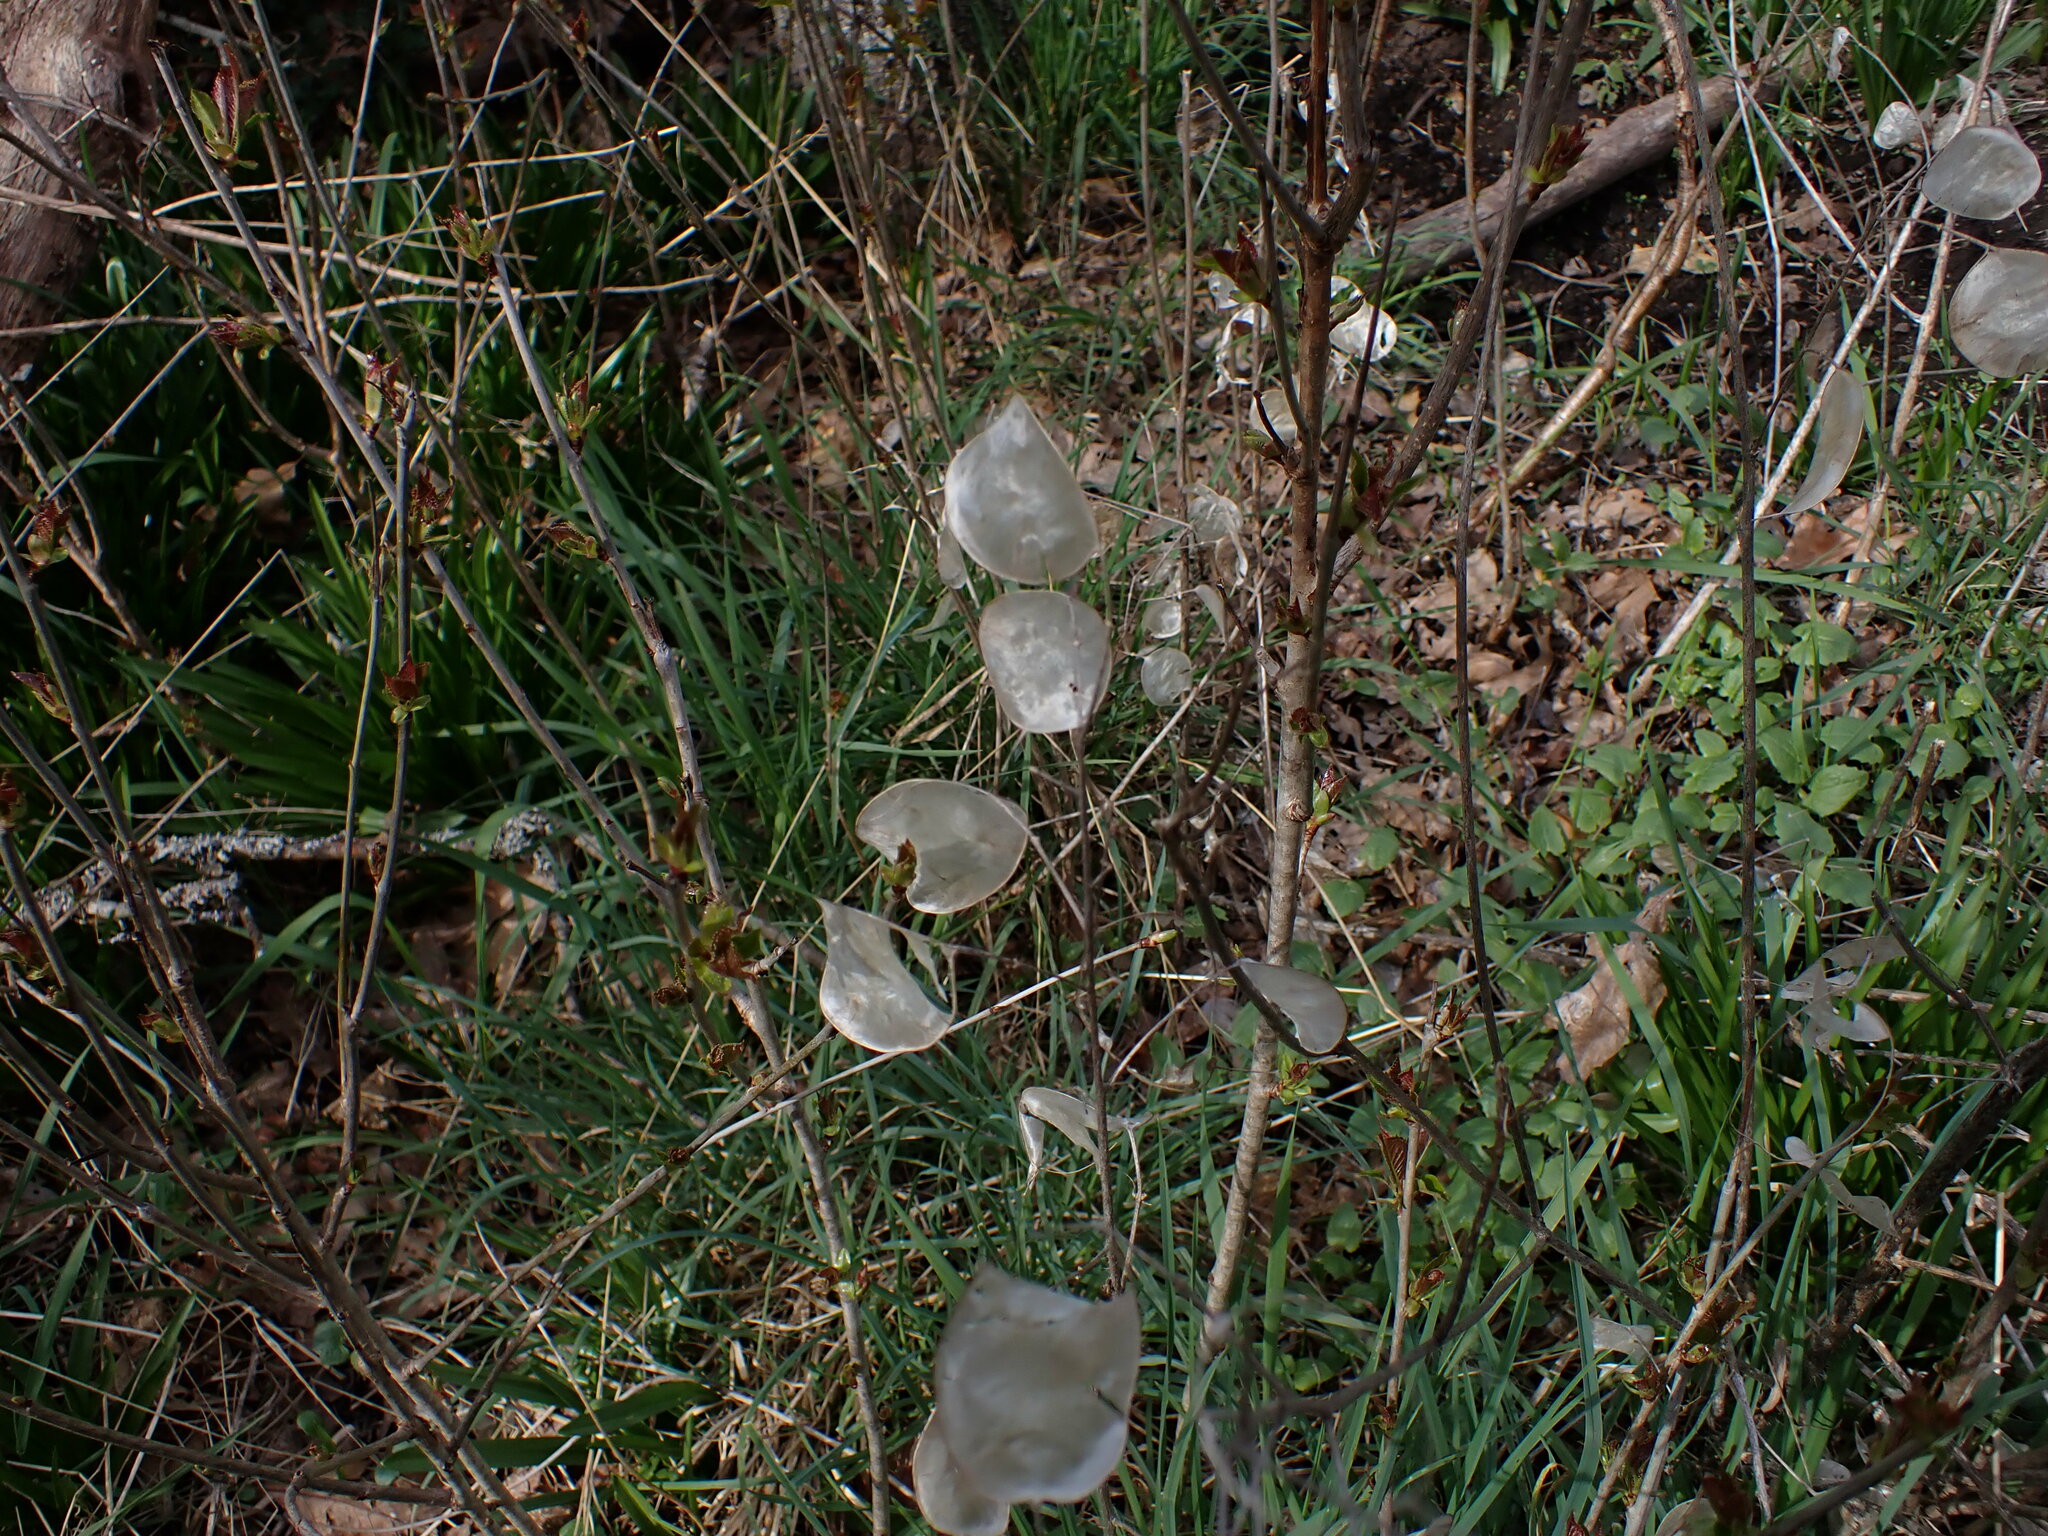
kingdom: Plantae
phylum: Tracheophyta
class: Magnoliopsida
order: Brassicales
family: Brassicaceae
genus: Lunaria
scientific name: Lunaria annua
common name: Honesty
